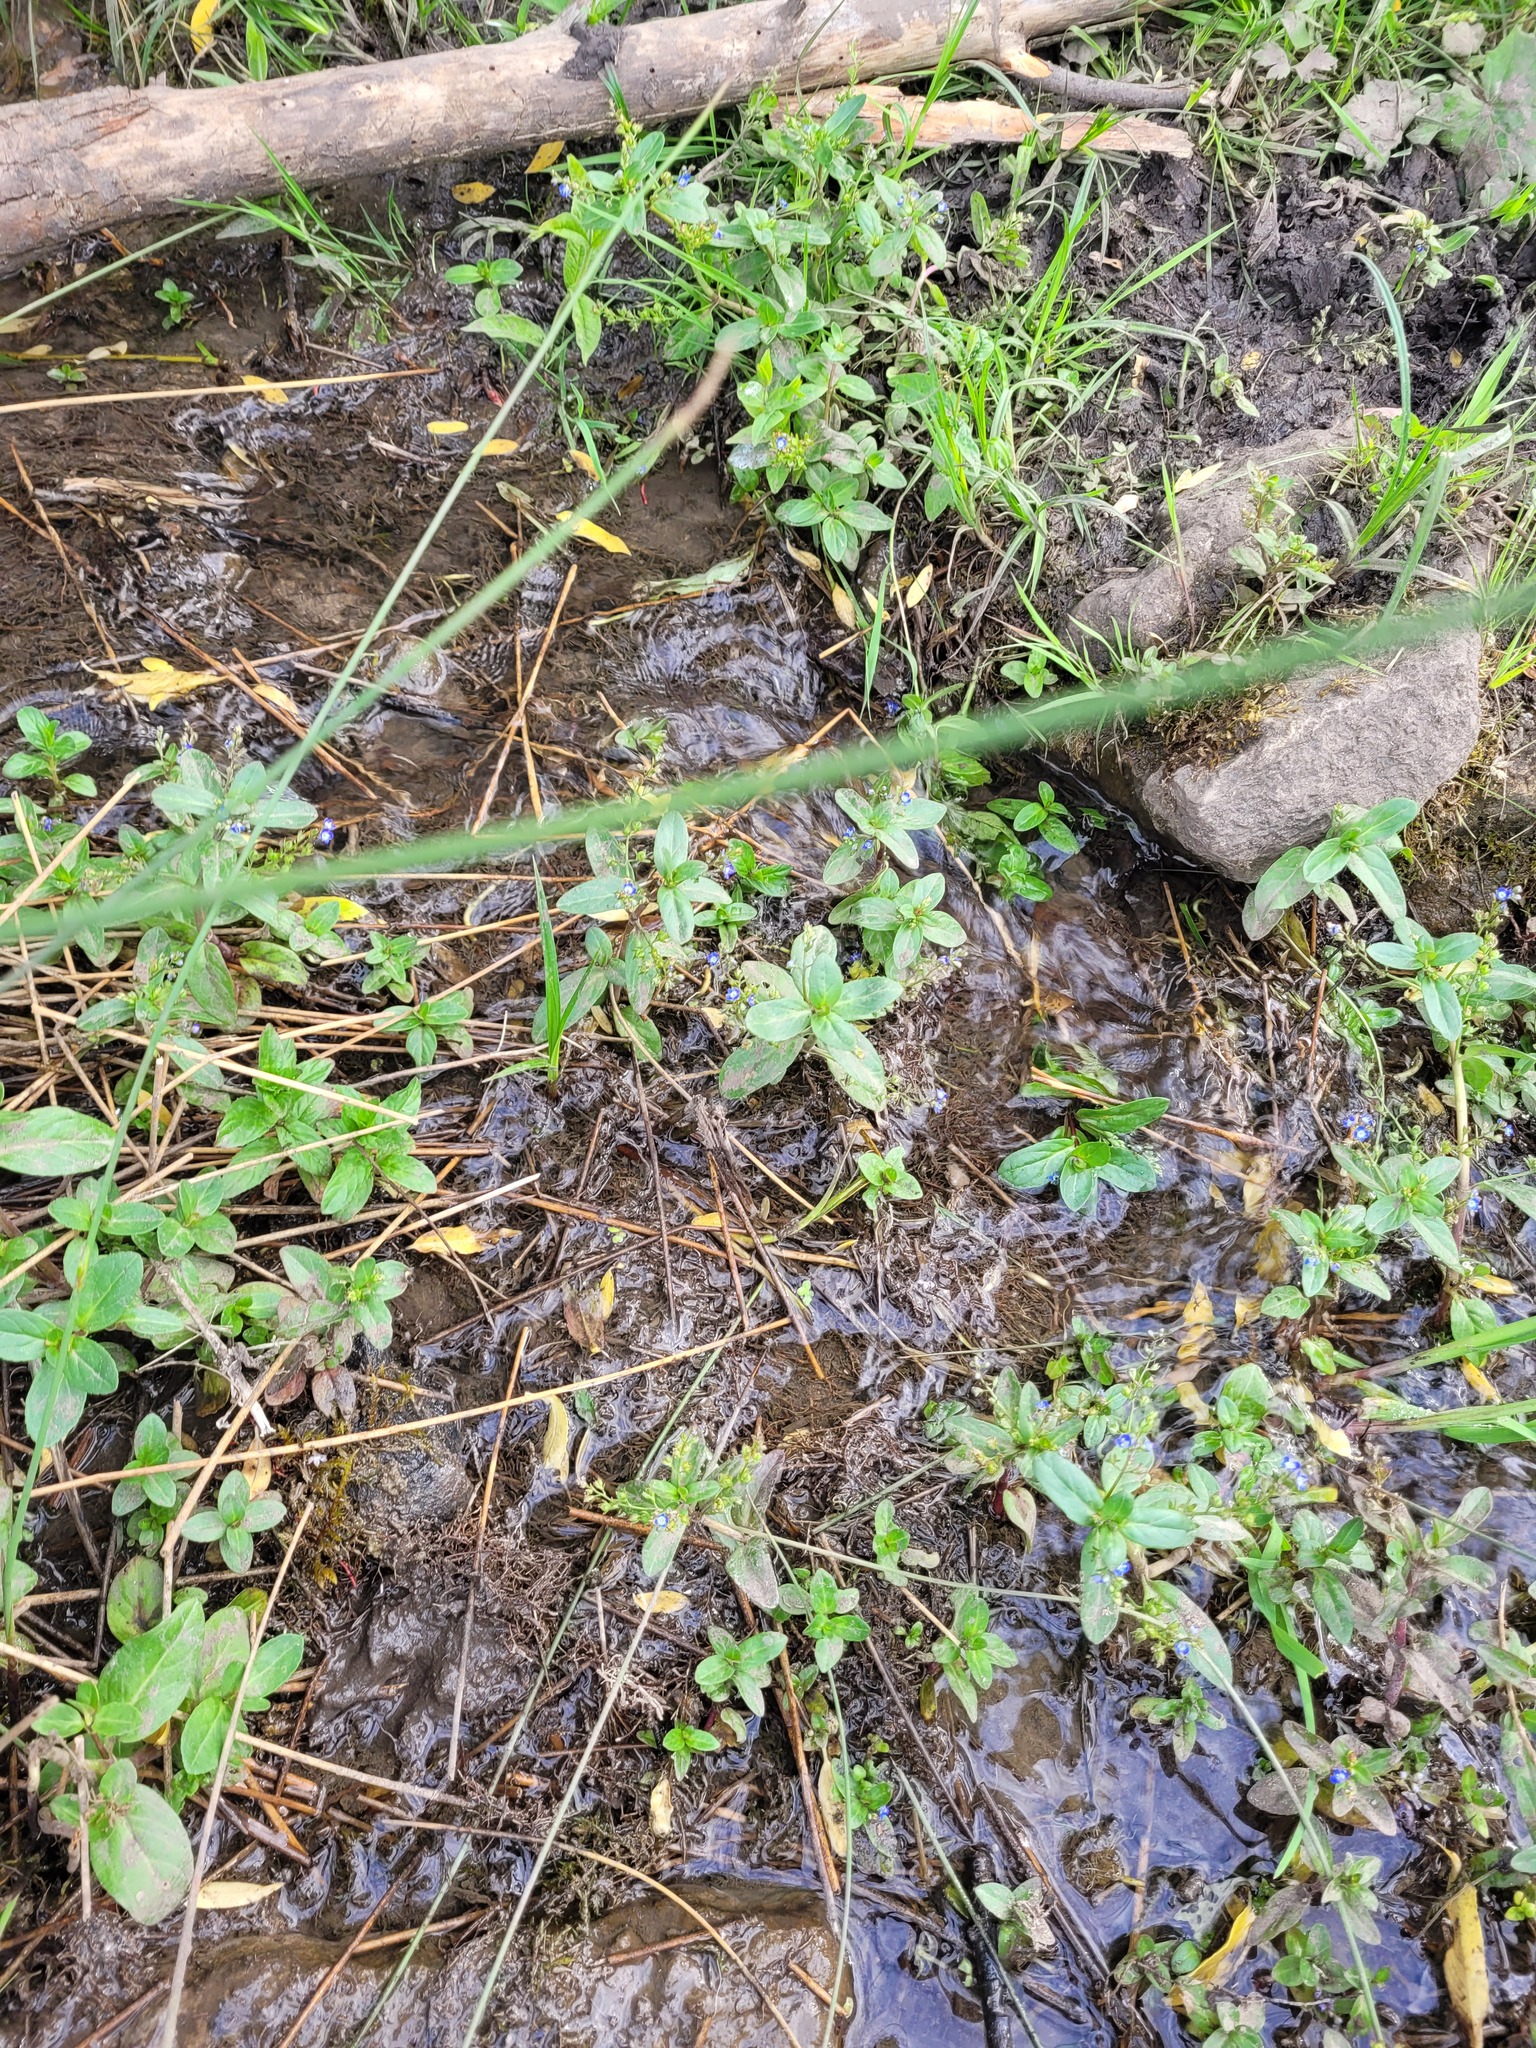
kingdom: Plantae
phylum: Tracheophyta
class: Magnoliopsida
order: Lamiales
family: Plantaginaceae
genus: Veronica
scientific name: Veronica beccabunga
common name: Brooklime
